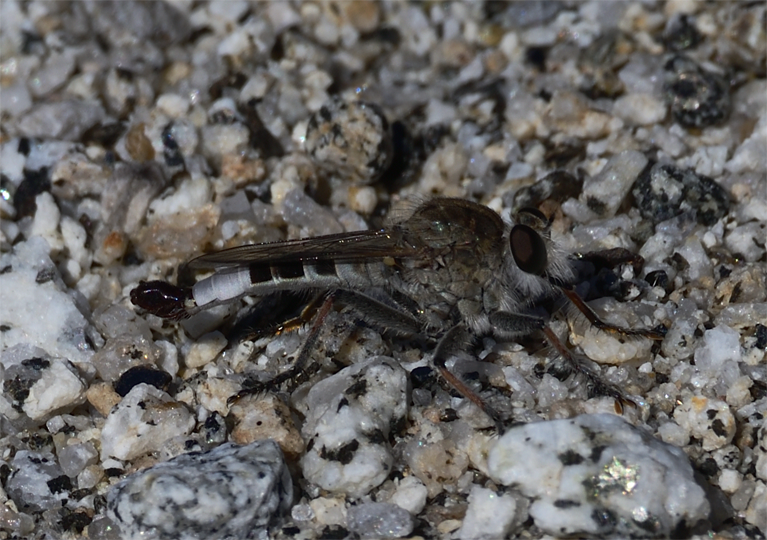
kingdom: Animalia
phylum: Arthropoda
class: Insecta
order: Diptera
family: Asilidae
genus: Efferia
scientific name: Efferia albibarbis
